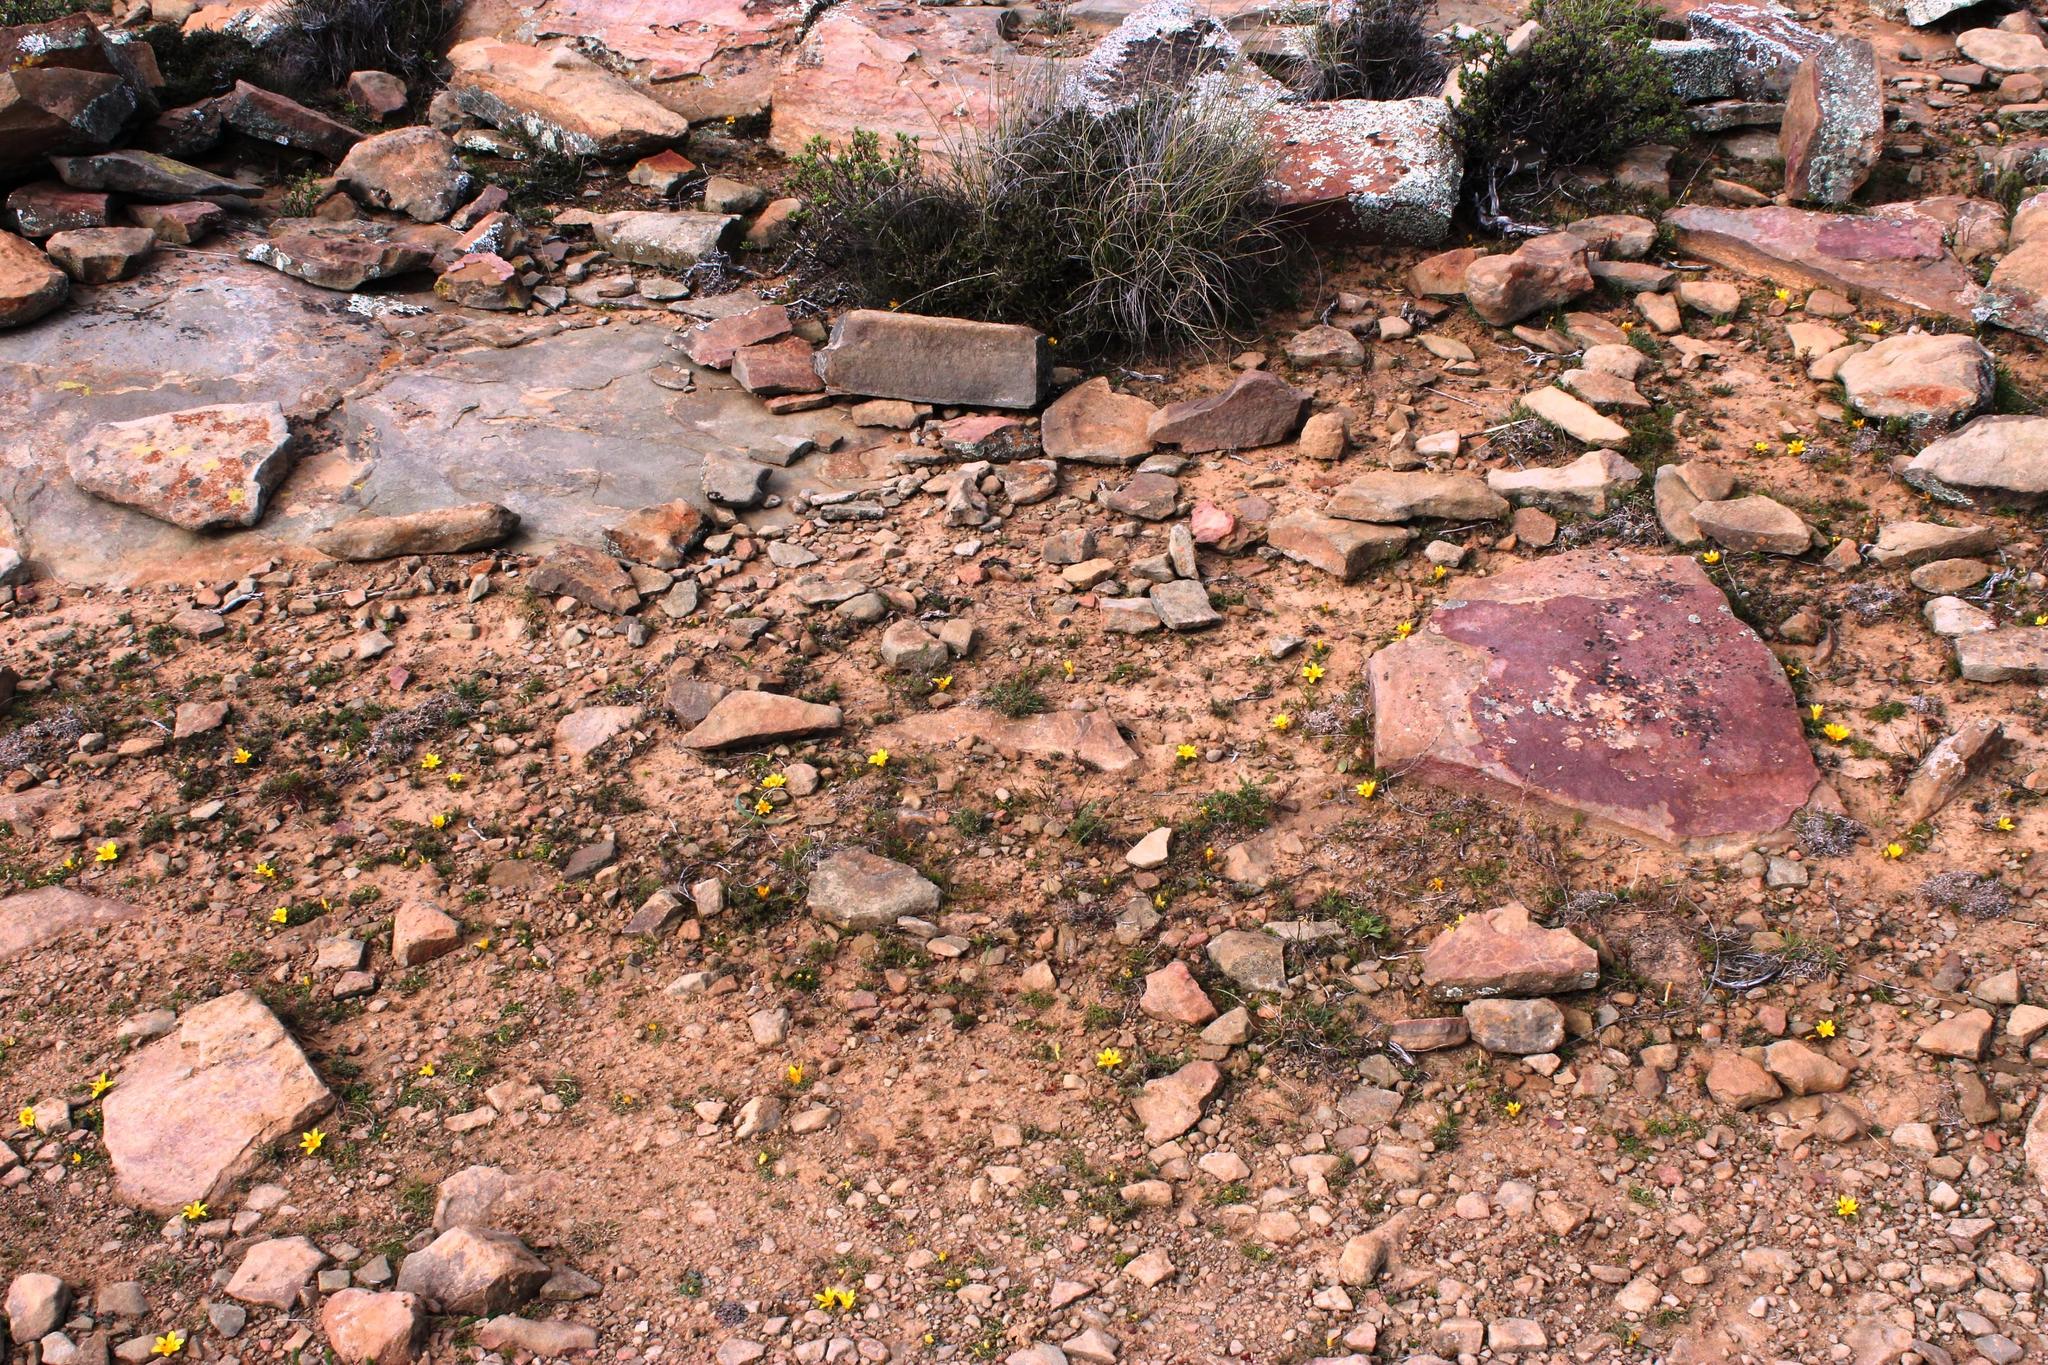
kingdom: Plantae
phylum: Tracheophyta
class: Liliopsida
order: Asparagales
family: Iridaceae
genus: Romulea
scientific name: Romulea tortuosa
